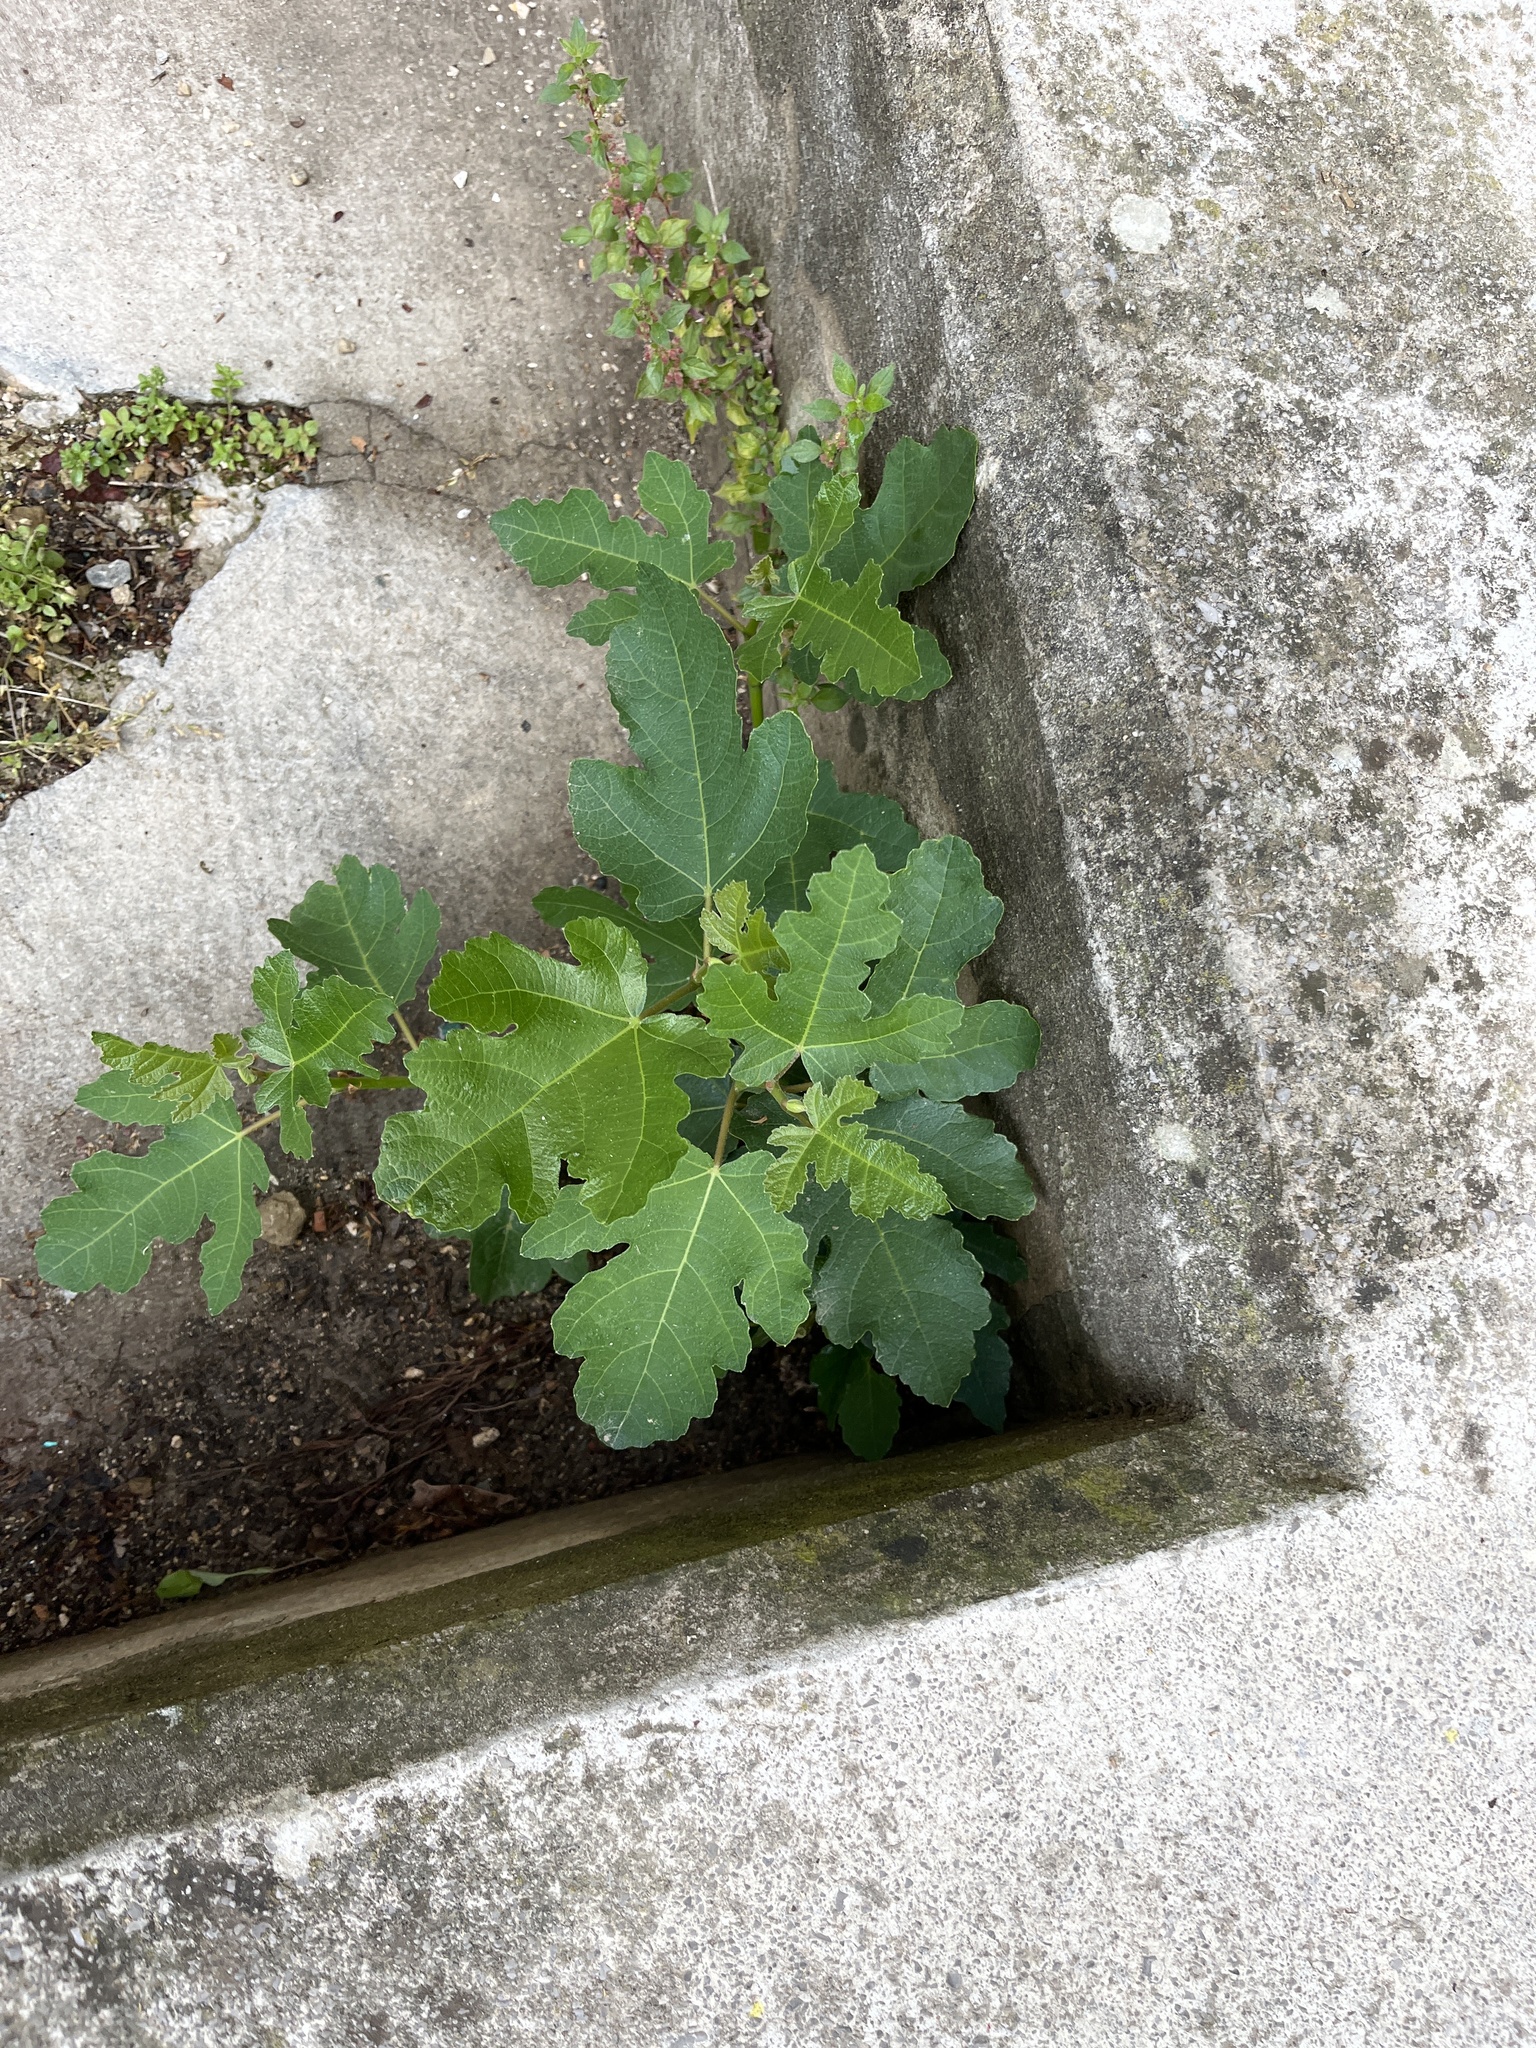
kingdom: Plantae
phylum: Tracheophyta
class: Magnoliopsida
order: Rosales
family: Moraceae
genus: Ficus
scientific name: Ficus carica
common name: Fig
